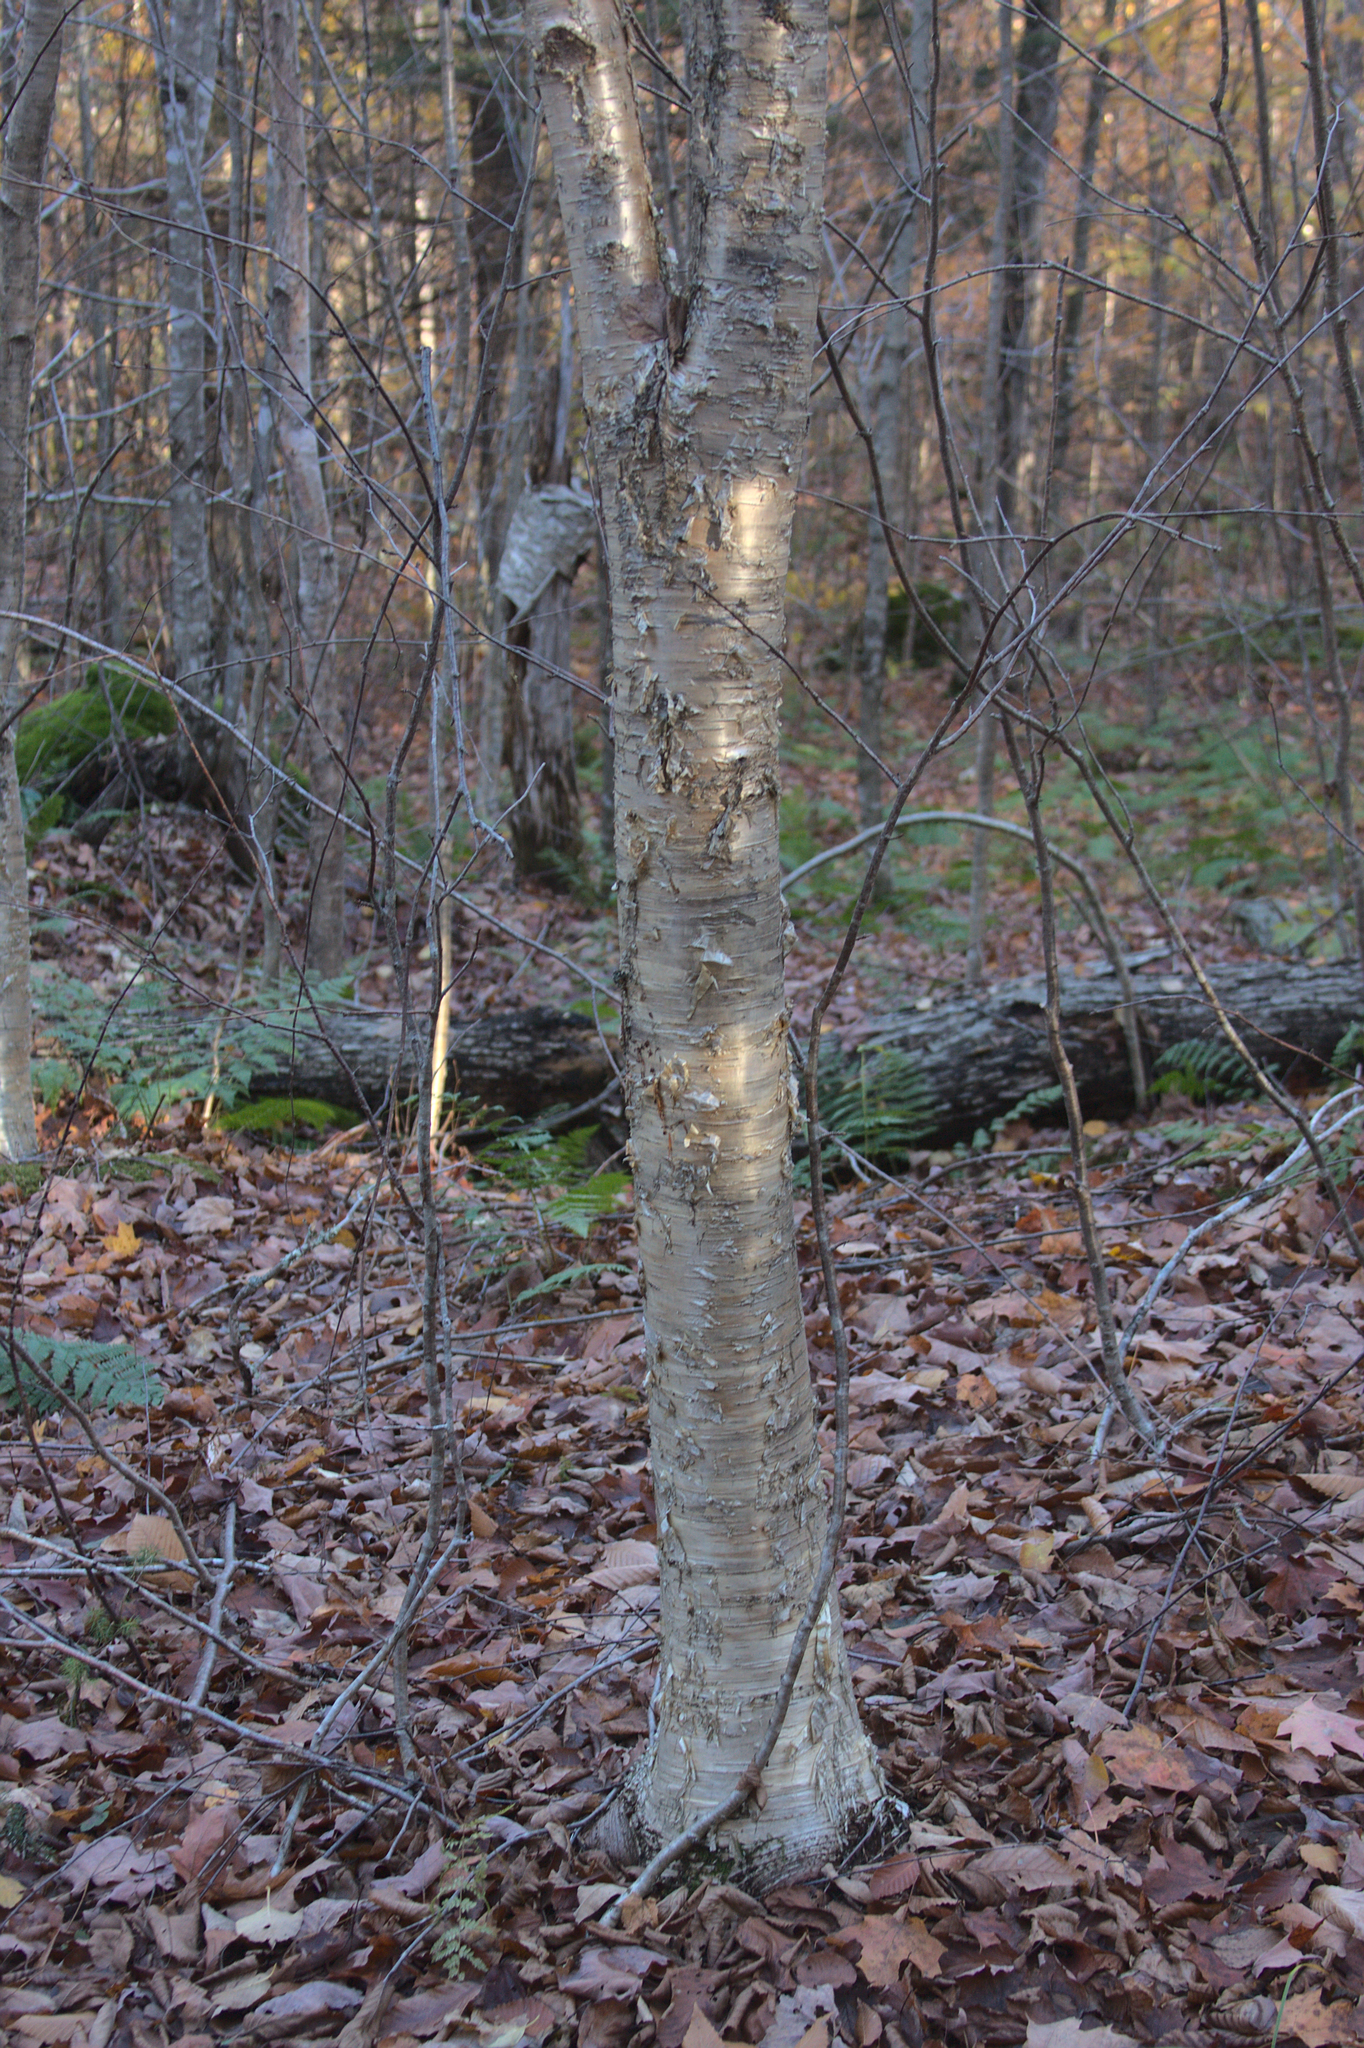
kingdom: Plantae
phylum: Tracheophyta
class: Magnoliopsida
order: Fagales
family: Betulaceae
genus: Betula
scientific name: Betula alleghaniensis
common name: Yellow birch
